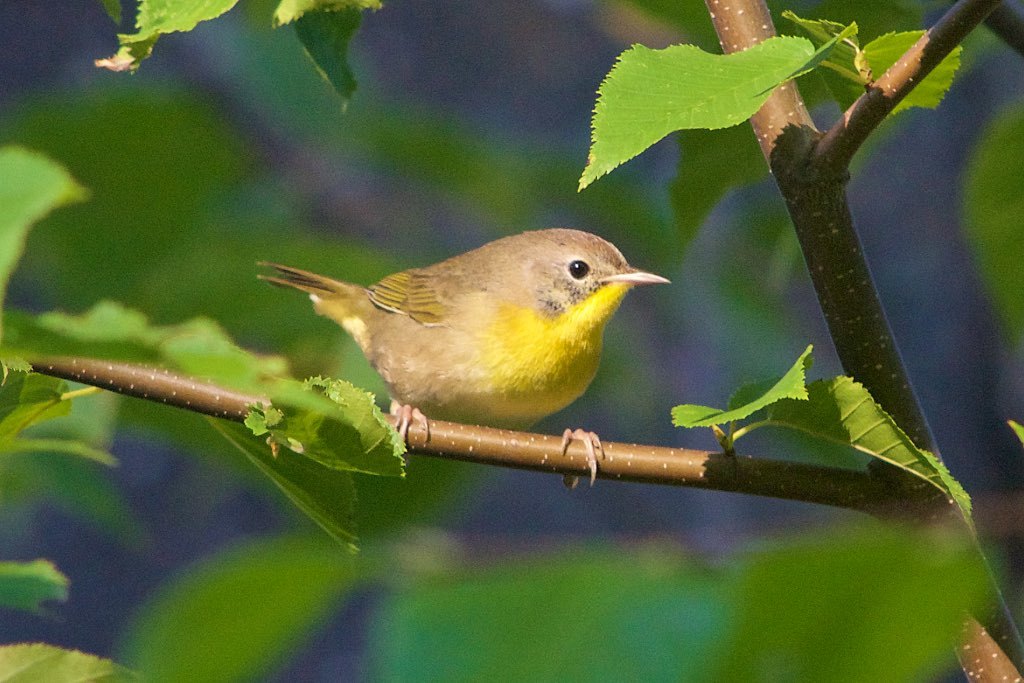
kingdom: Animalia
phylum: Chordata
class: Aves
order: Passeriformes
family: Parulidae
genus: Geothlypis
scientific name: Geothlypis trichas
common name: Common yellowthroat
